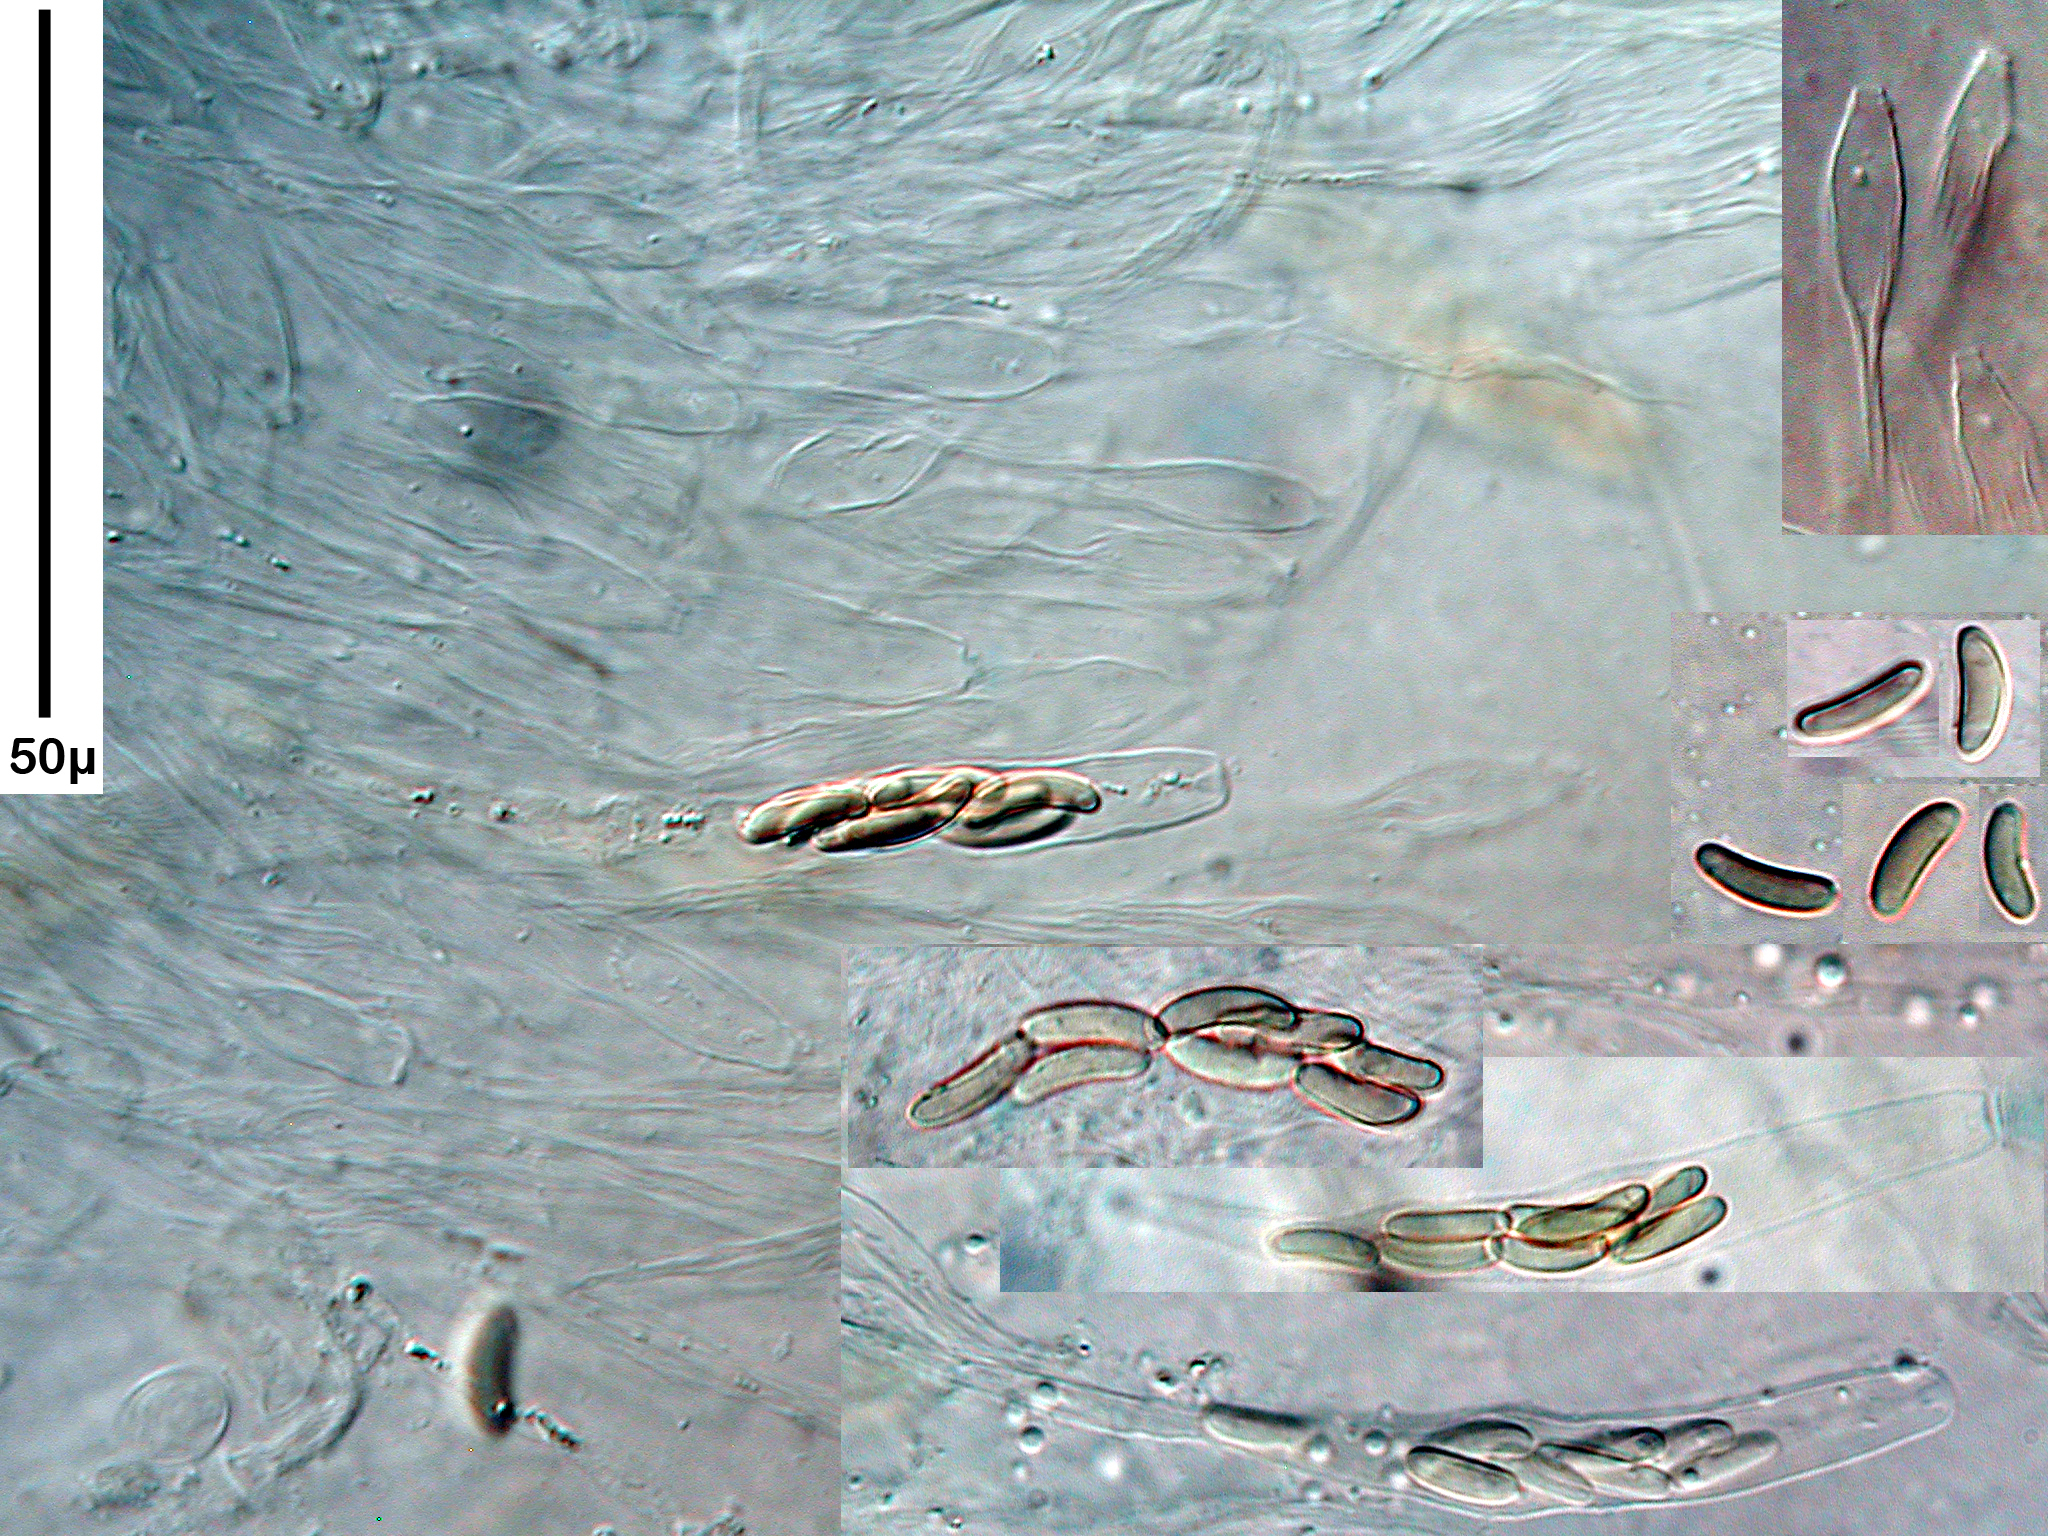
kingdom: Fungi
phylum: Ascomycota
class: Sordariomycetes
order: Xylariales
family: Diatrypaceae
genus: Diatrype
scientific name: Diatrype virescens
